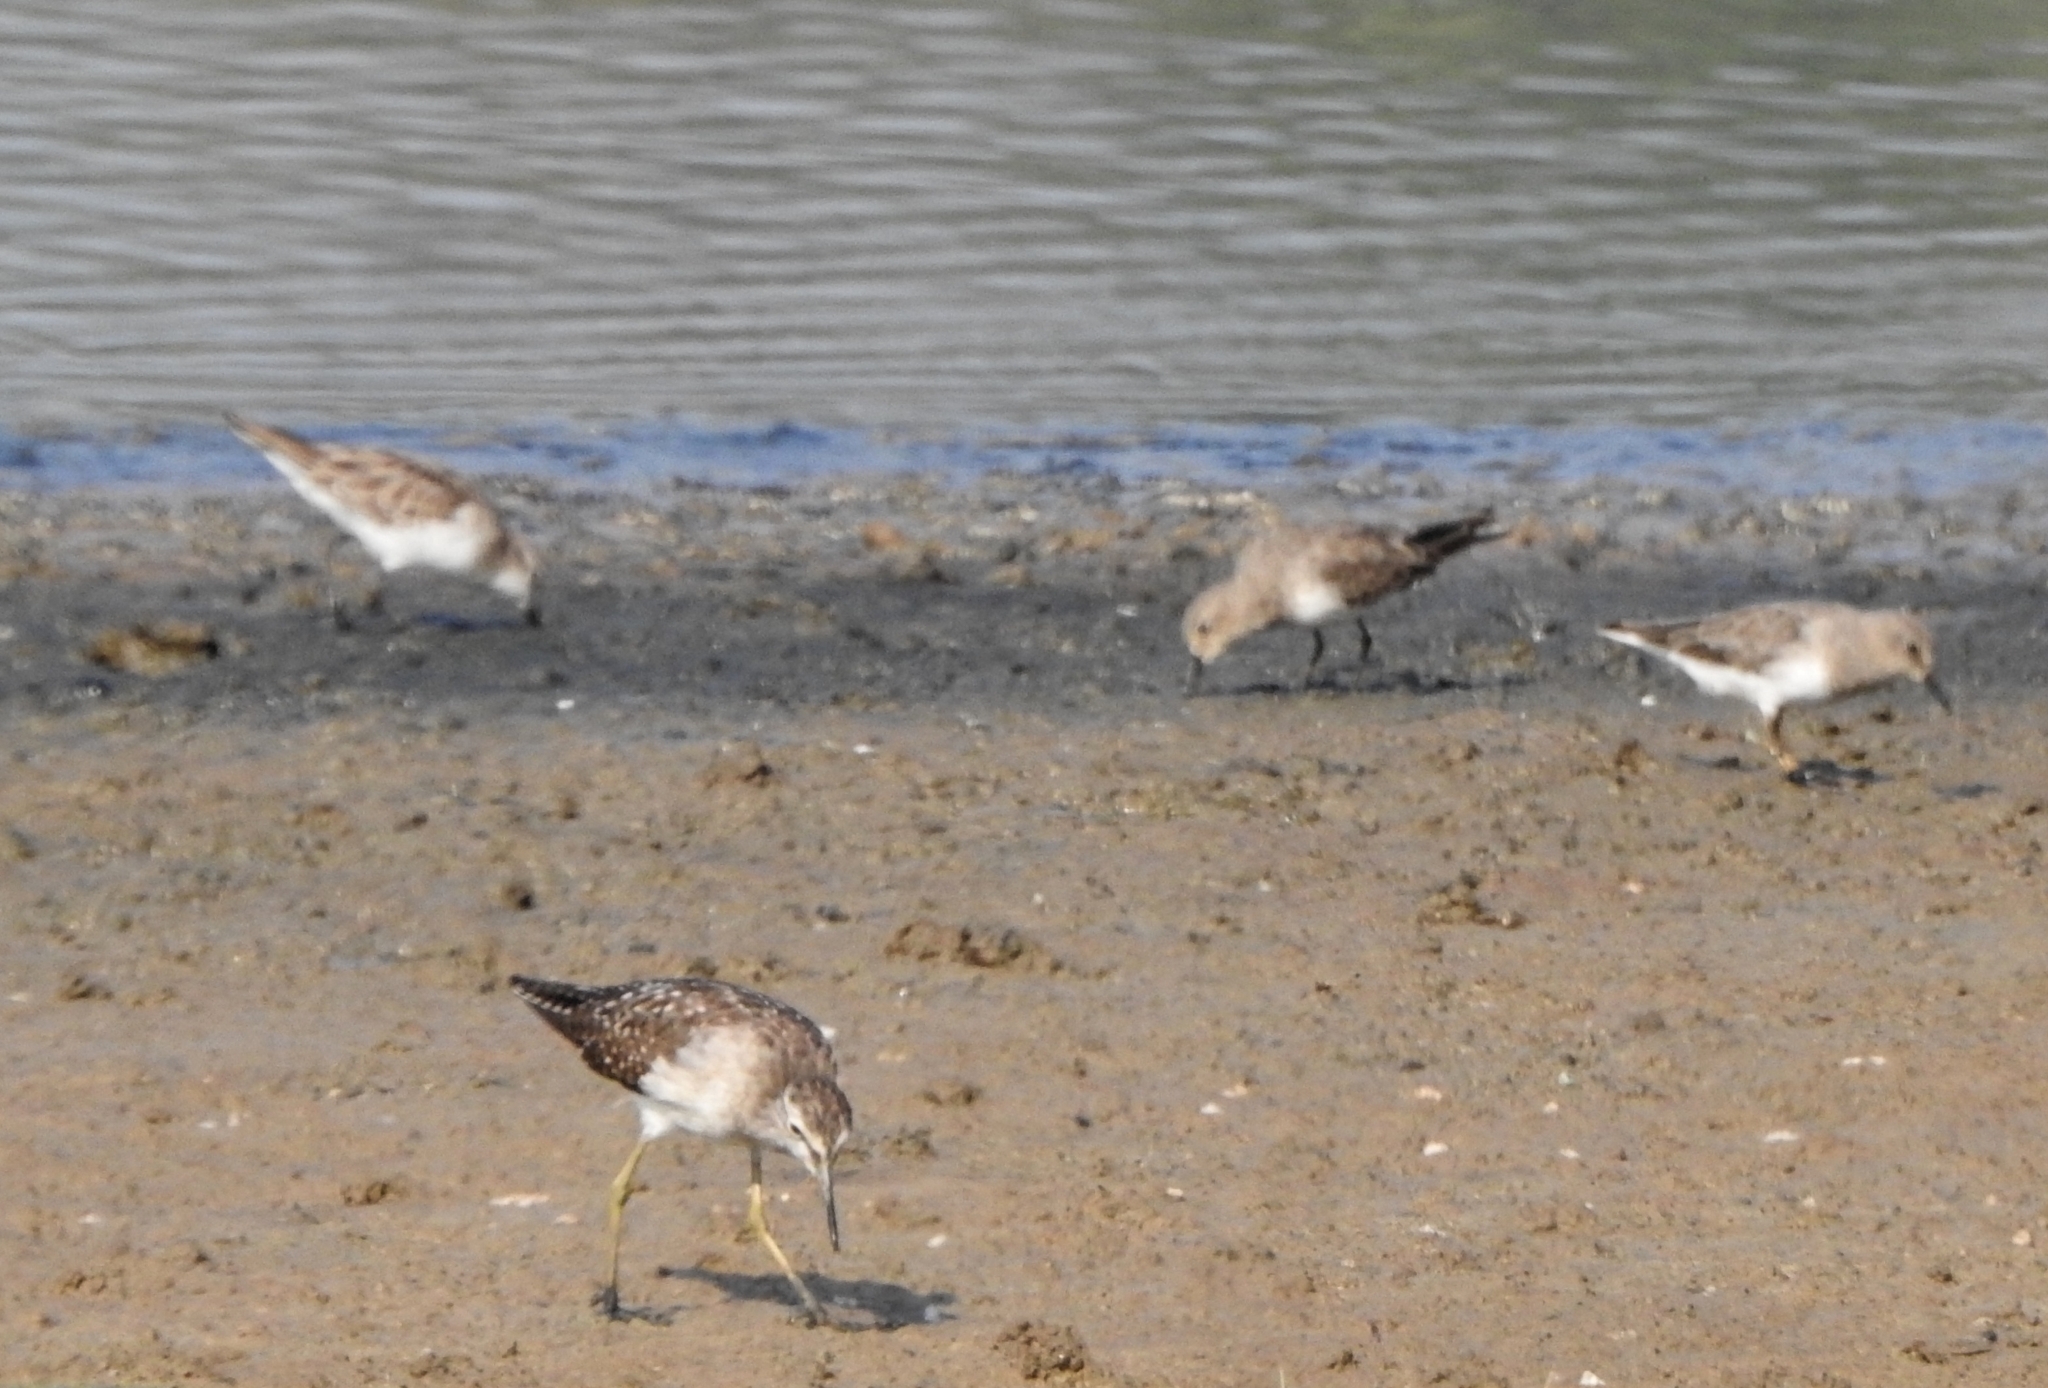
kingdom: Animalia
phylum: Chordata
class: Aves
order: Charadriiformes
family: Scolopacidae
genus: Calidris
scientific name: Calidris temminckii
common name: Temminck's stint
